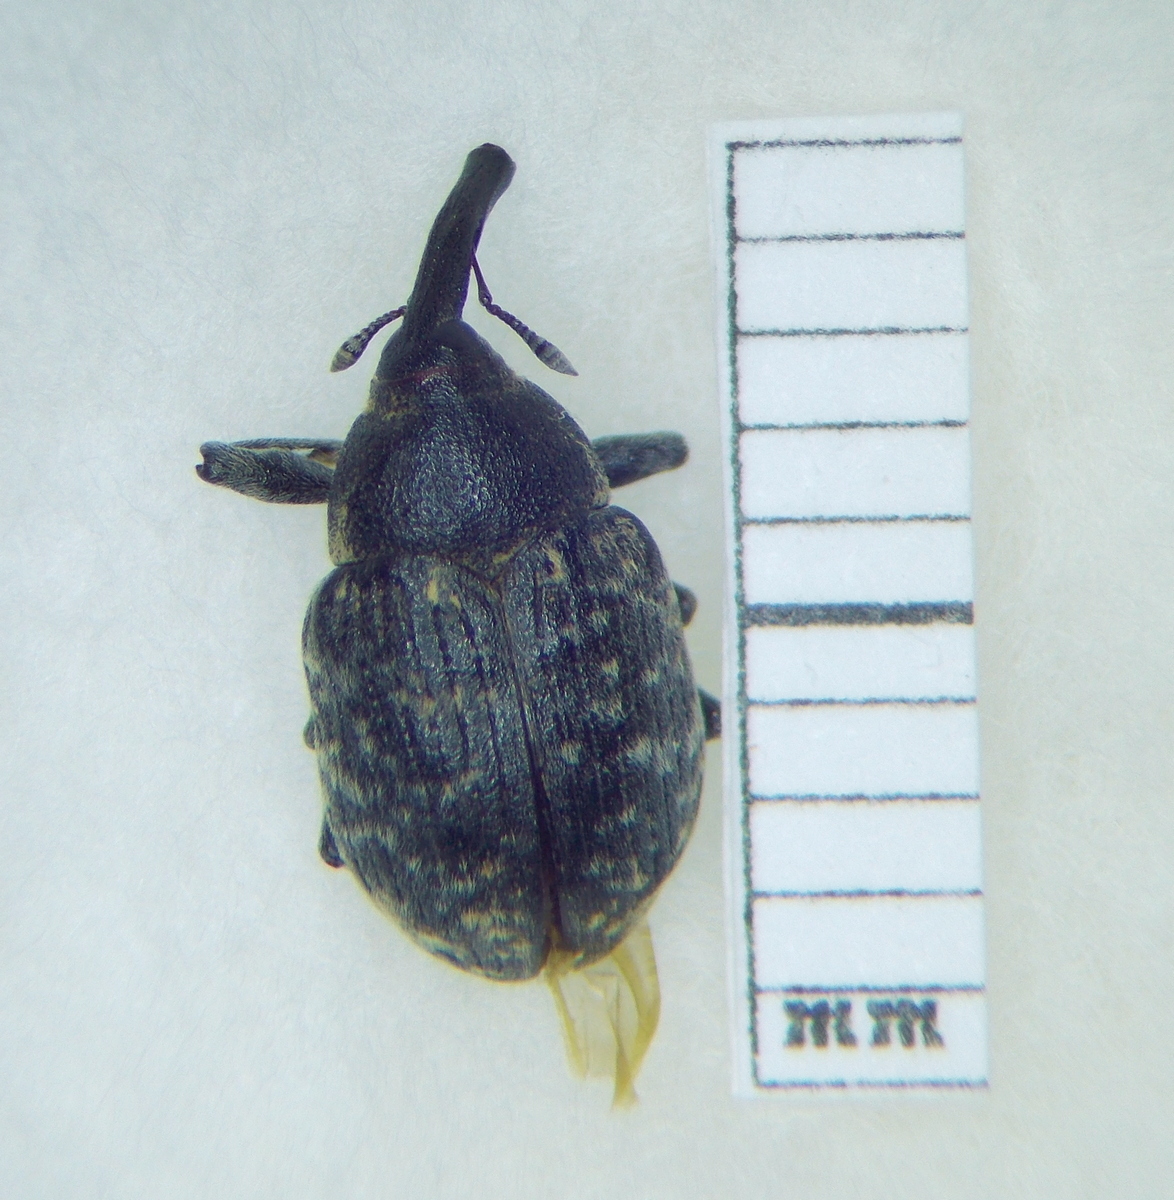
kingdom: Animalia
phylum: Arthropoda
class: Insecta
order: Coleoptera
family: Curculionidae
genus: Larinus
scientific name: Larinus iaceae
